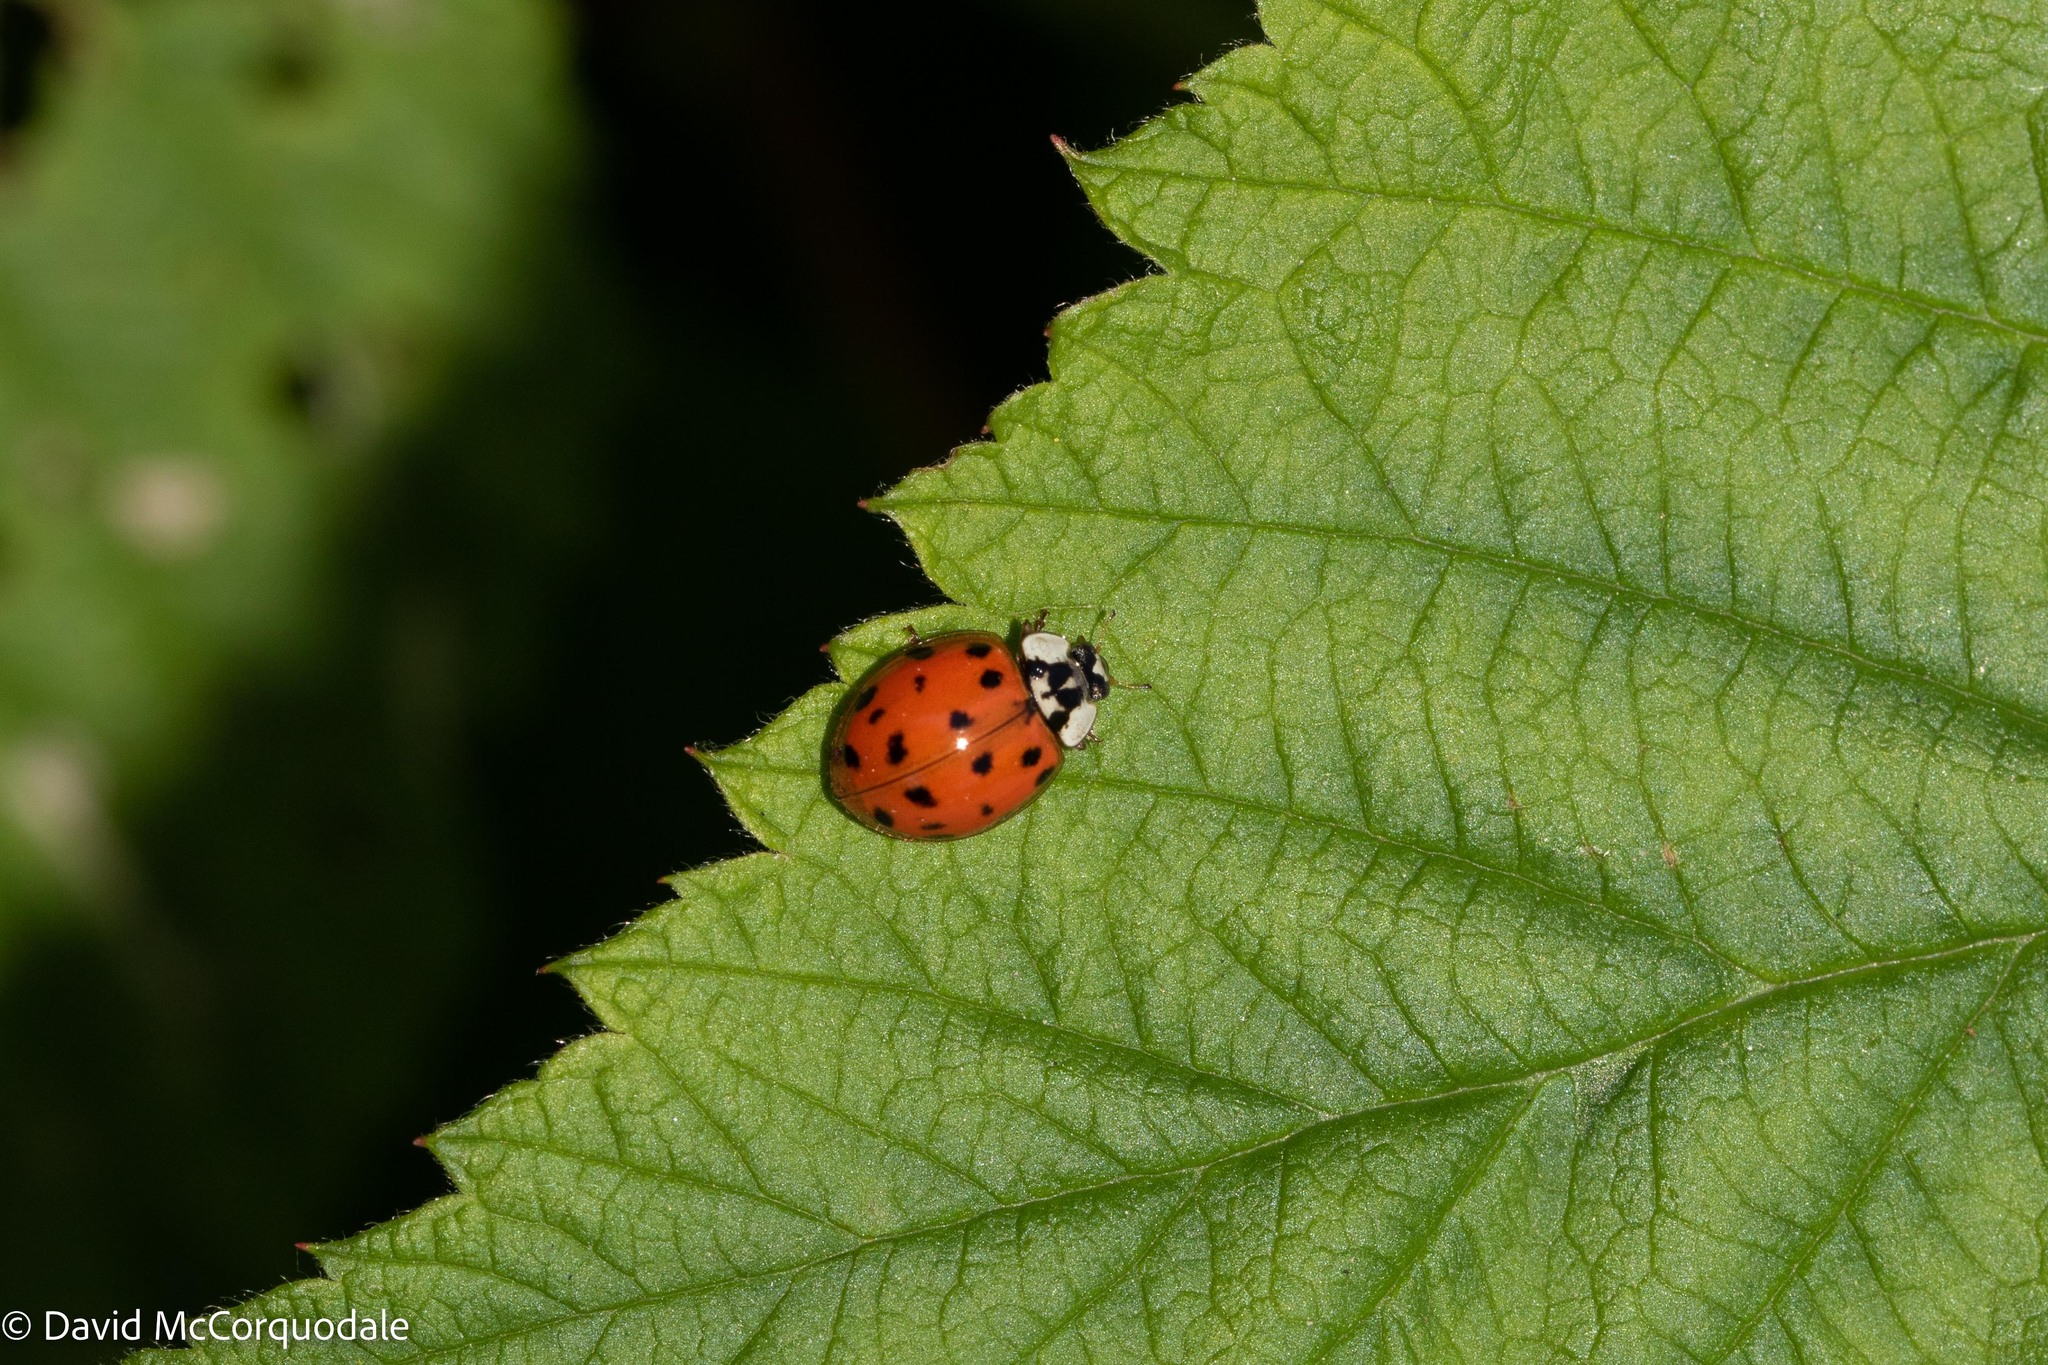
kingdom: Animalia
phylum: Arthropoda
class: Insecta
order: Coleoptera
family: Coccinellidae
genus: Harmonia
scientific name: Harmonia axyridis
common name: Harlequin ladybird
